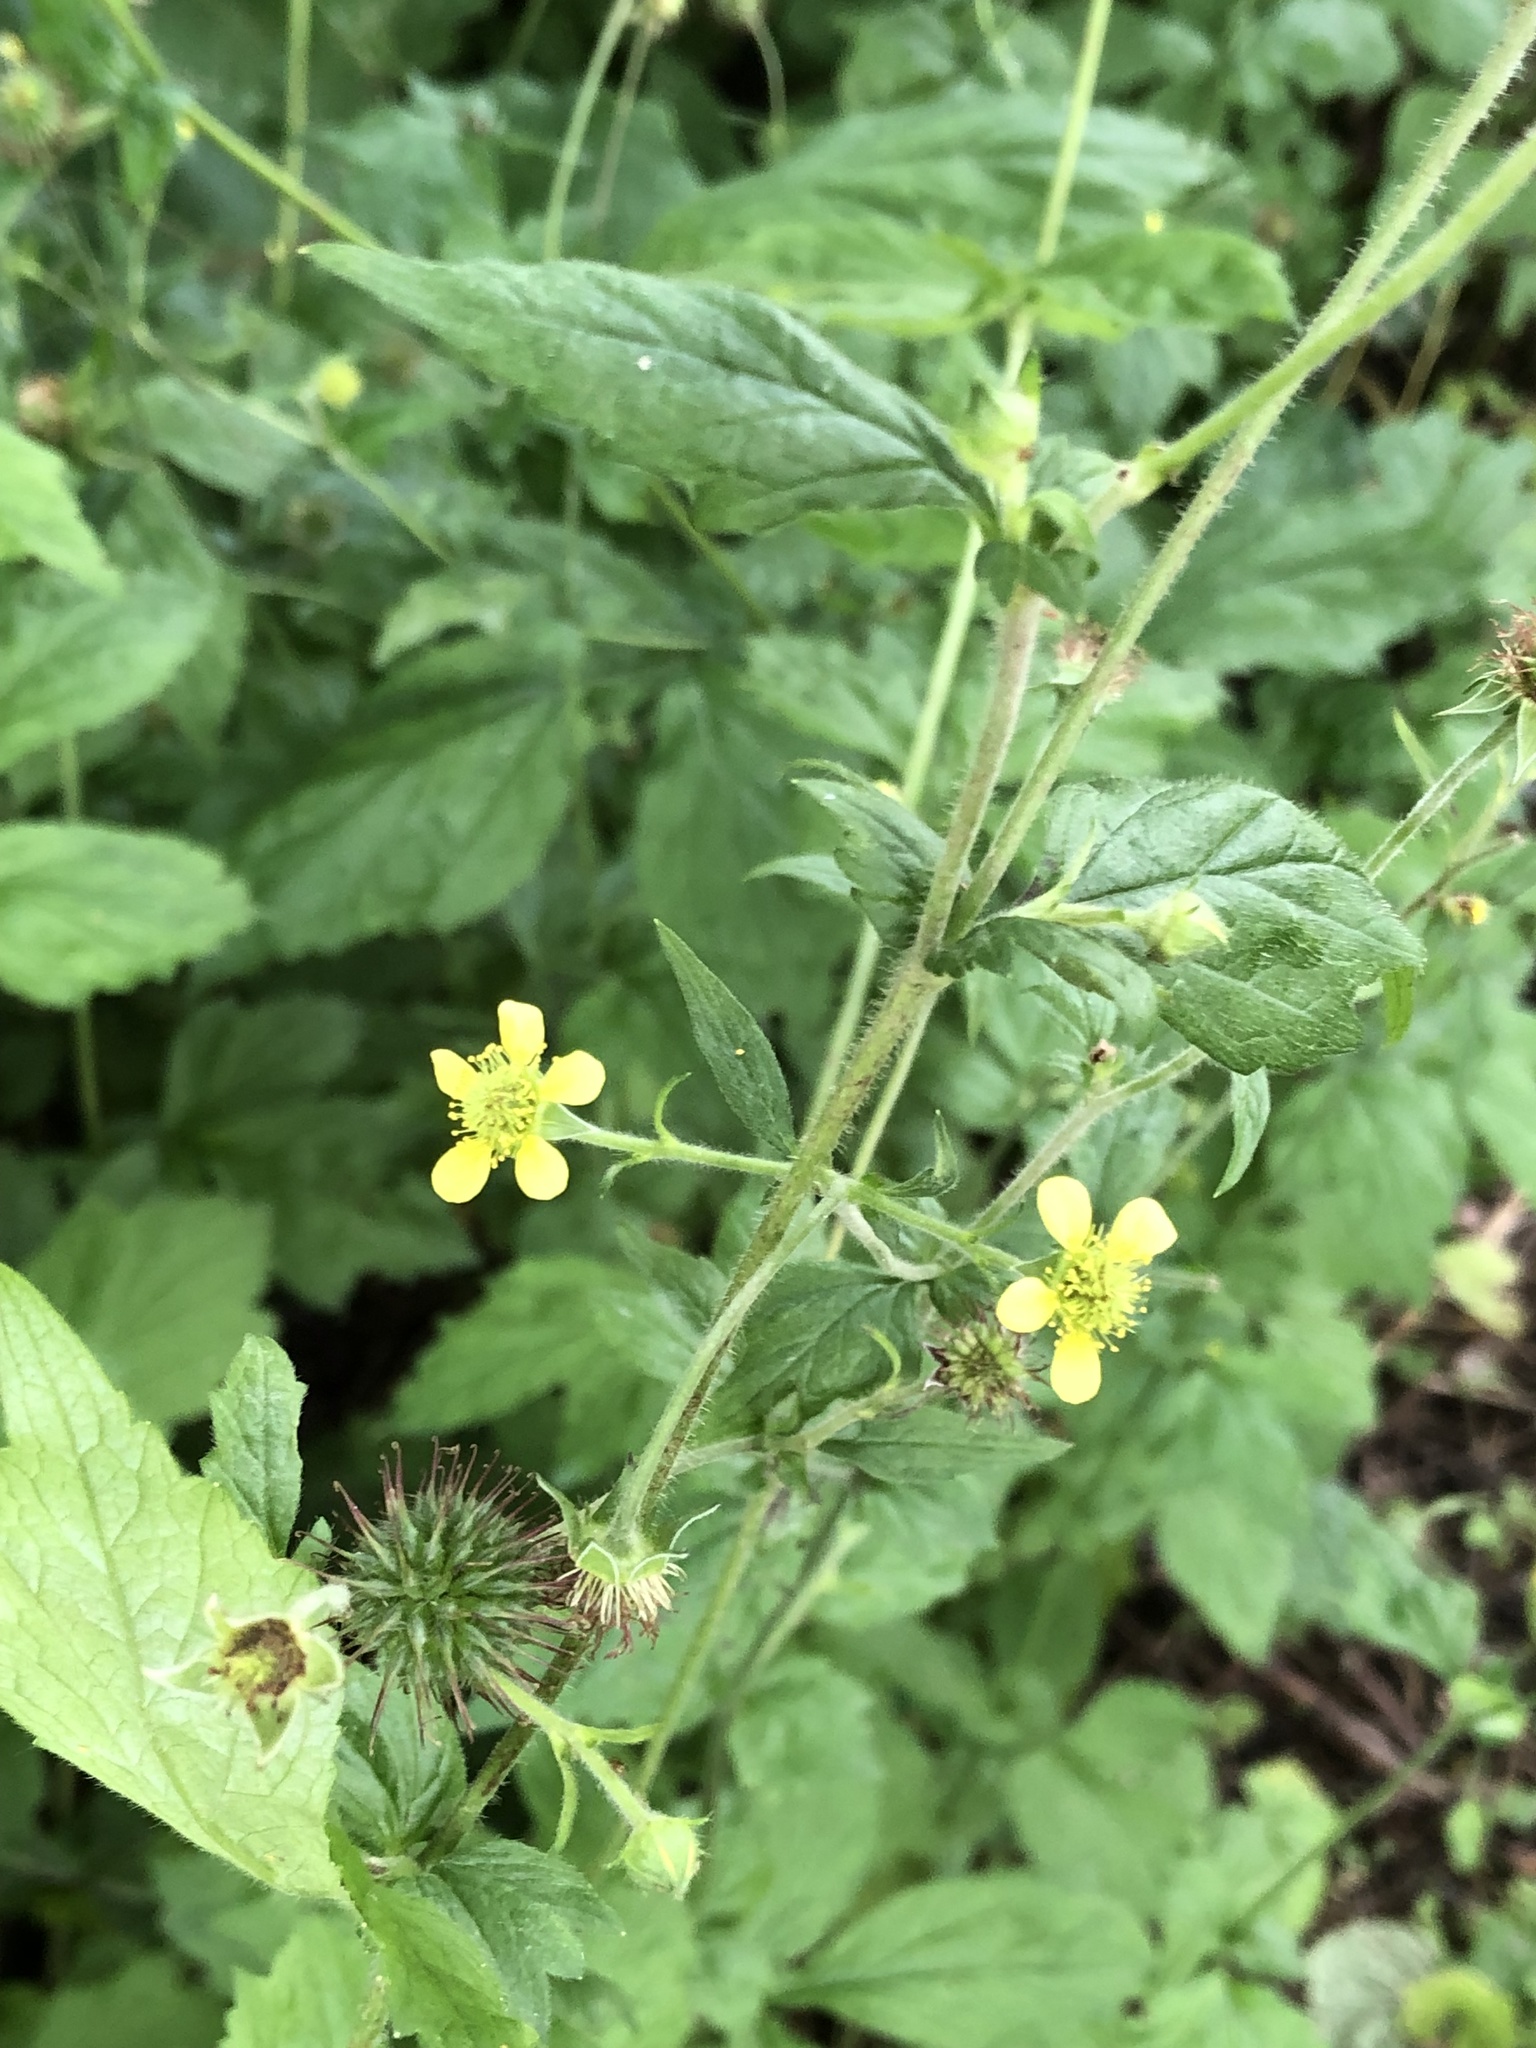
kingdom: Plantae
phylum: Tracheophyta
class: Magnoliopsida
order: Rosales
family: Rosaceae
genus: Geum
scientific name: Geum urbanum
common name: Wood avens
